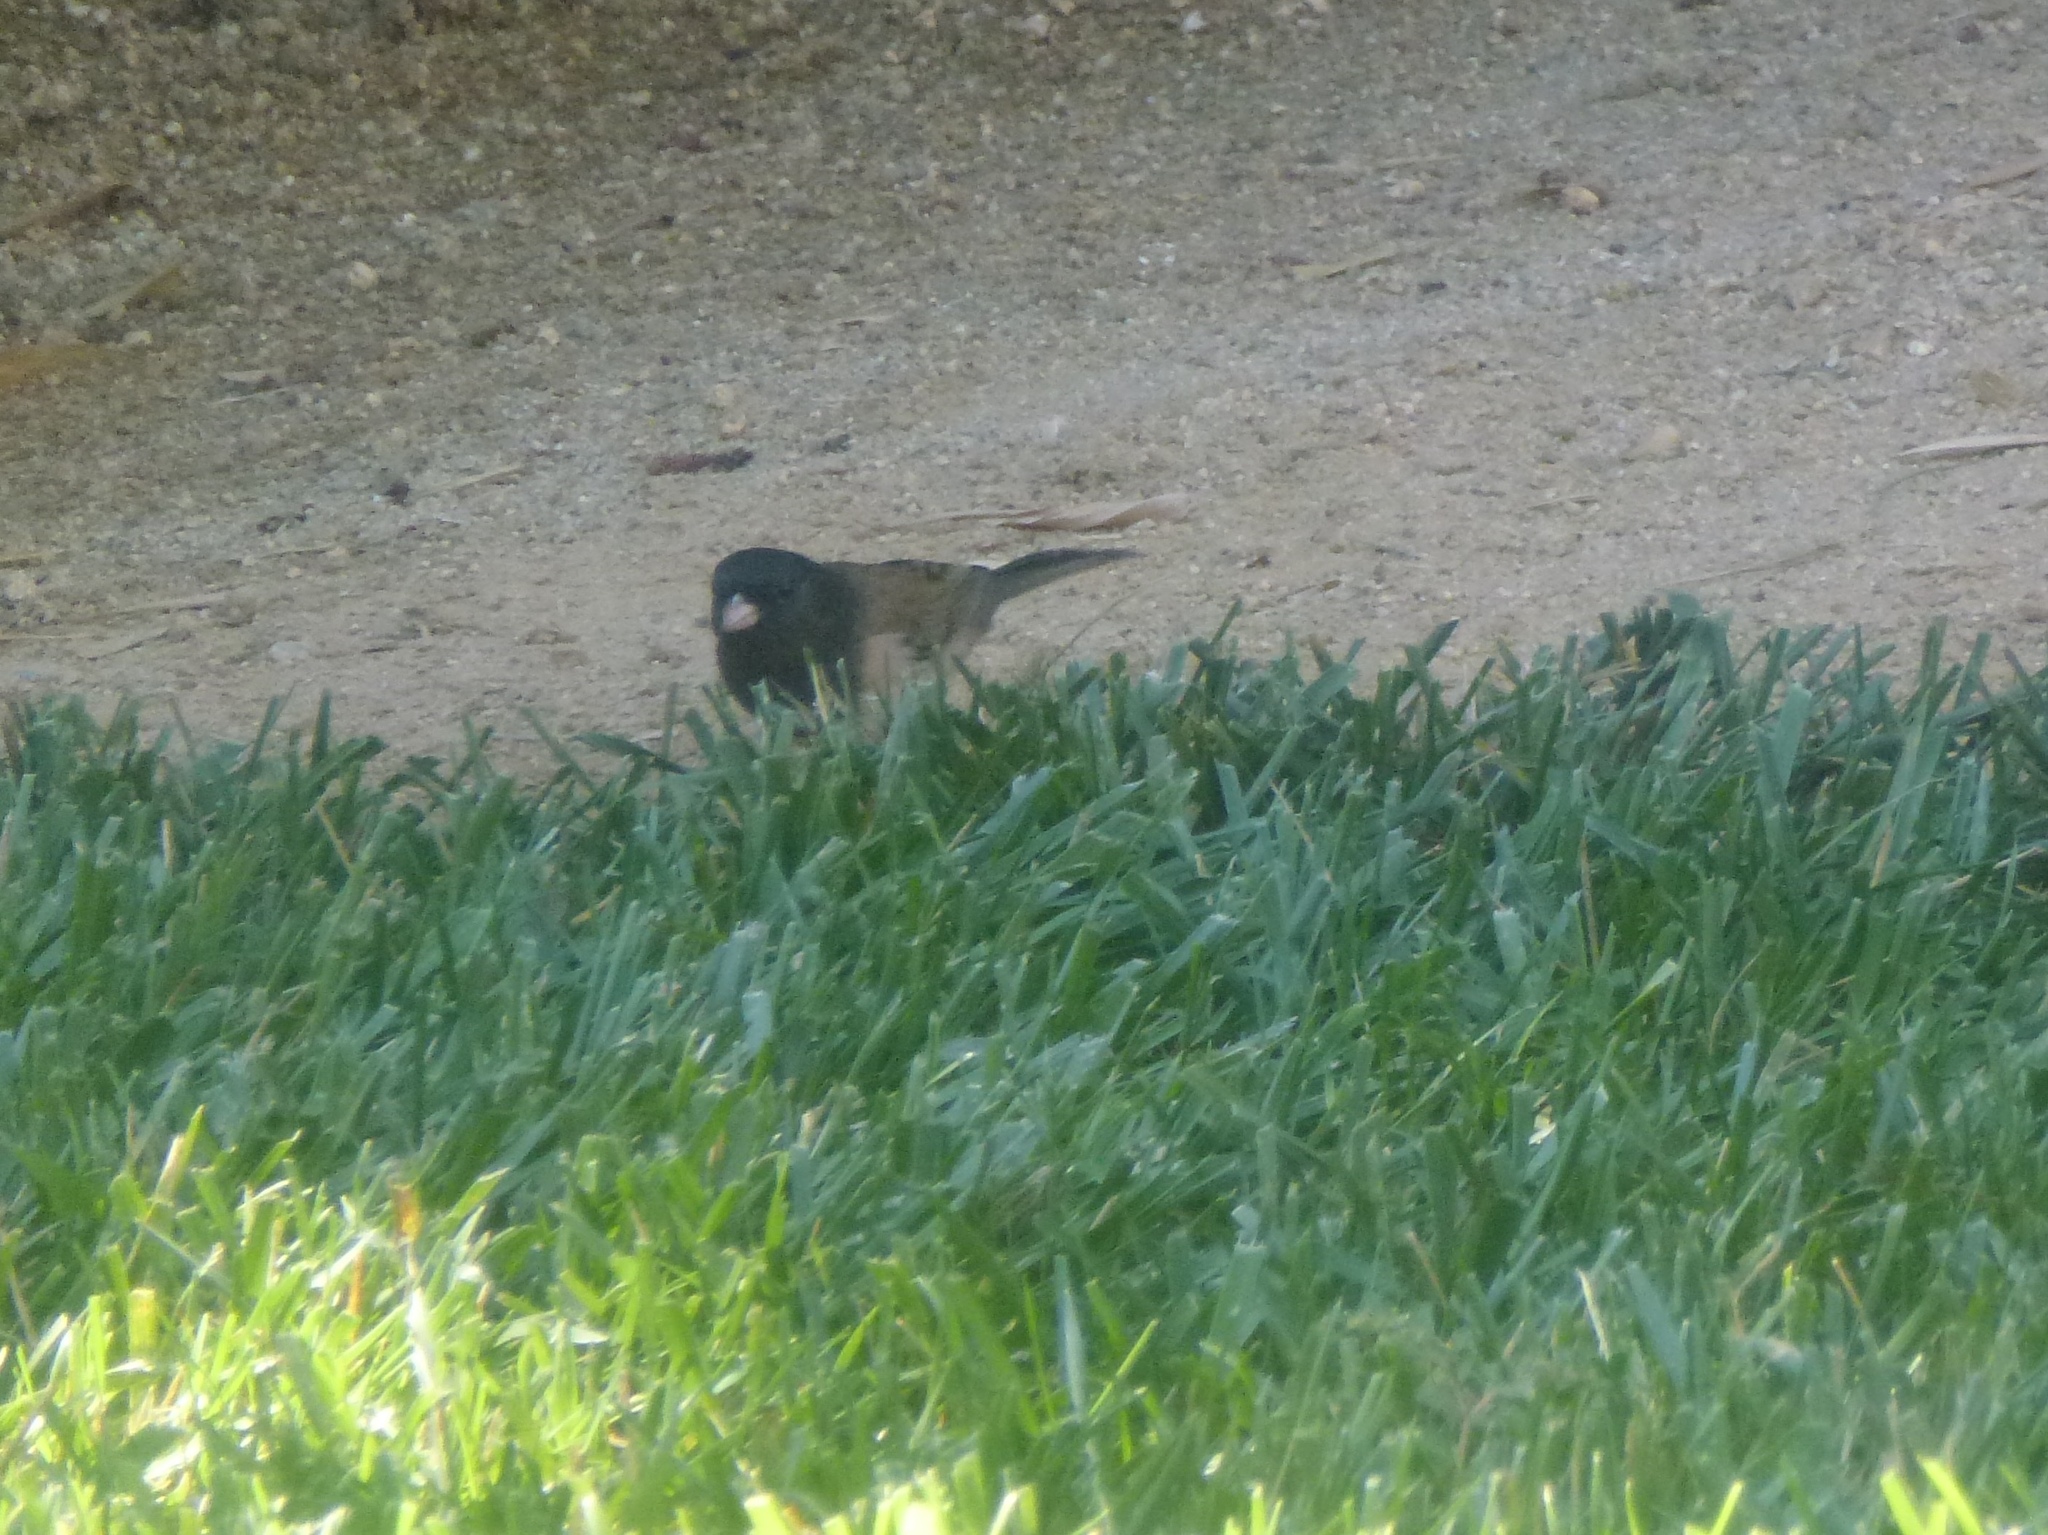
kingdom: Animalia
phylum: Chordata
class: Aves
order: Passeriformes
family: Passerellidae
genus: Junco
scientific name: Junco hyemalis
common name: Dark-eyed junco
